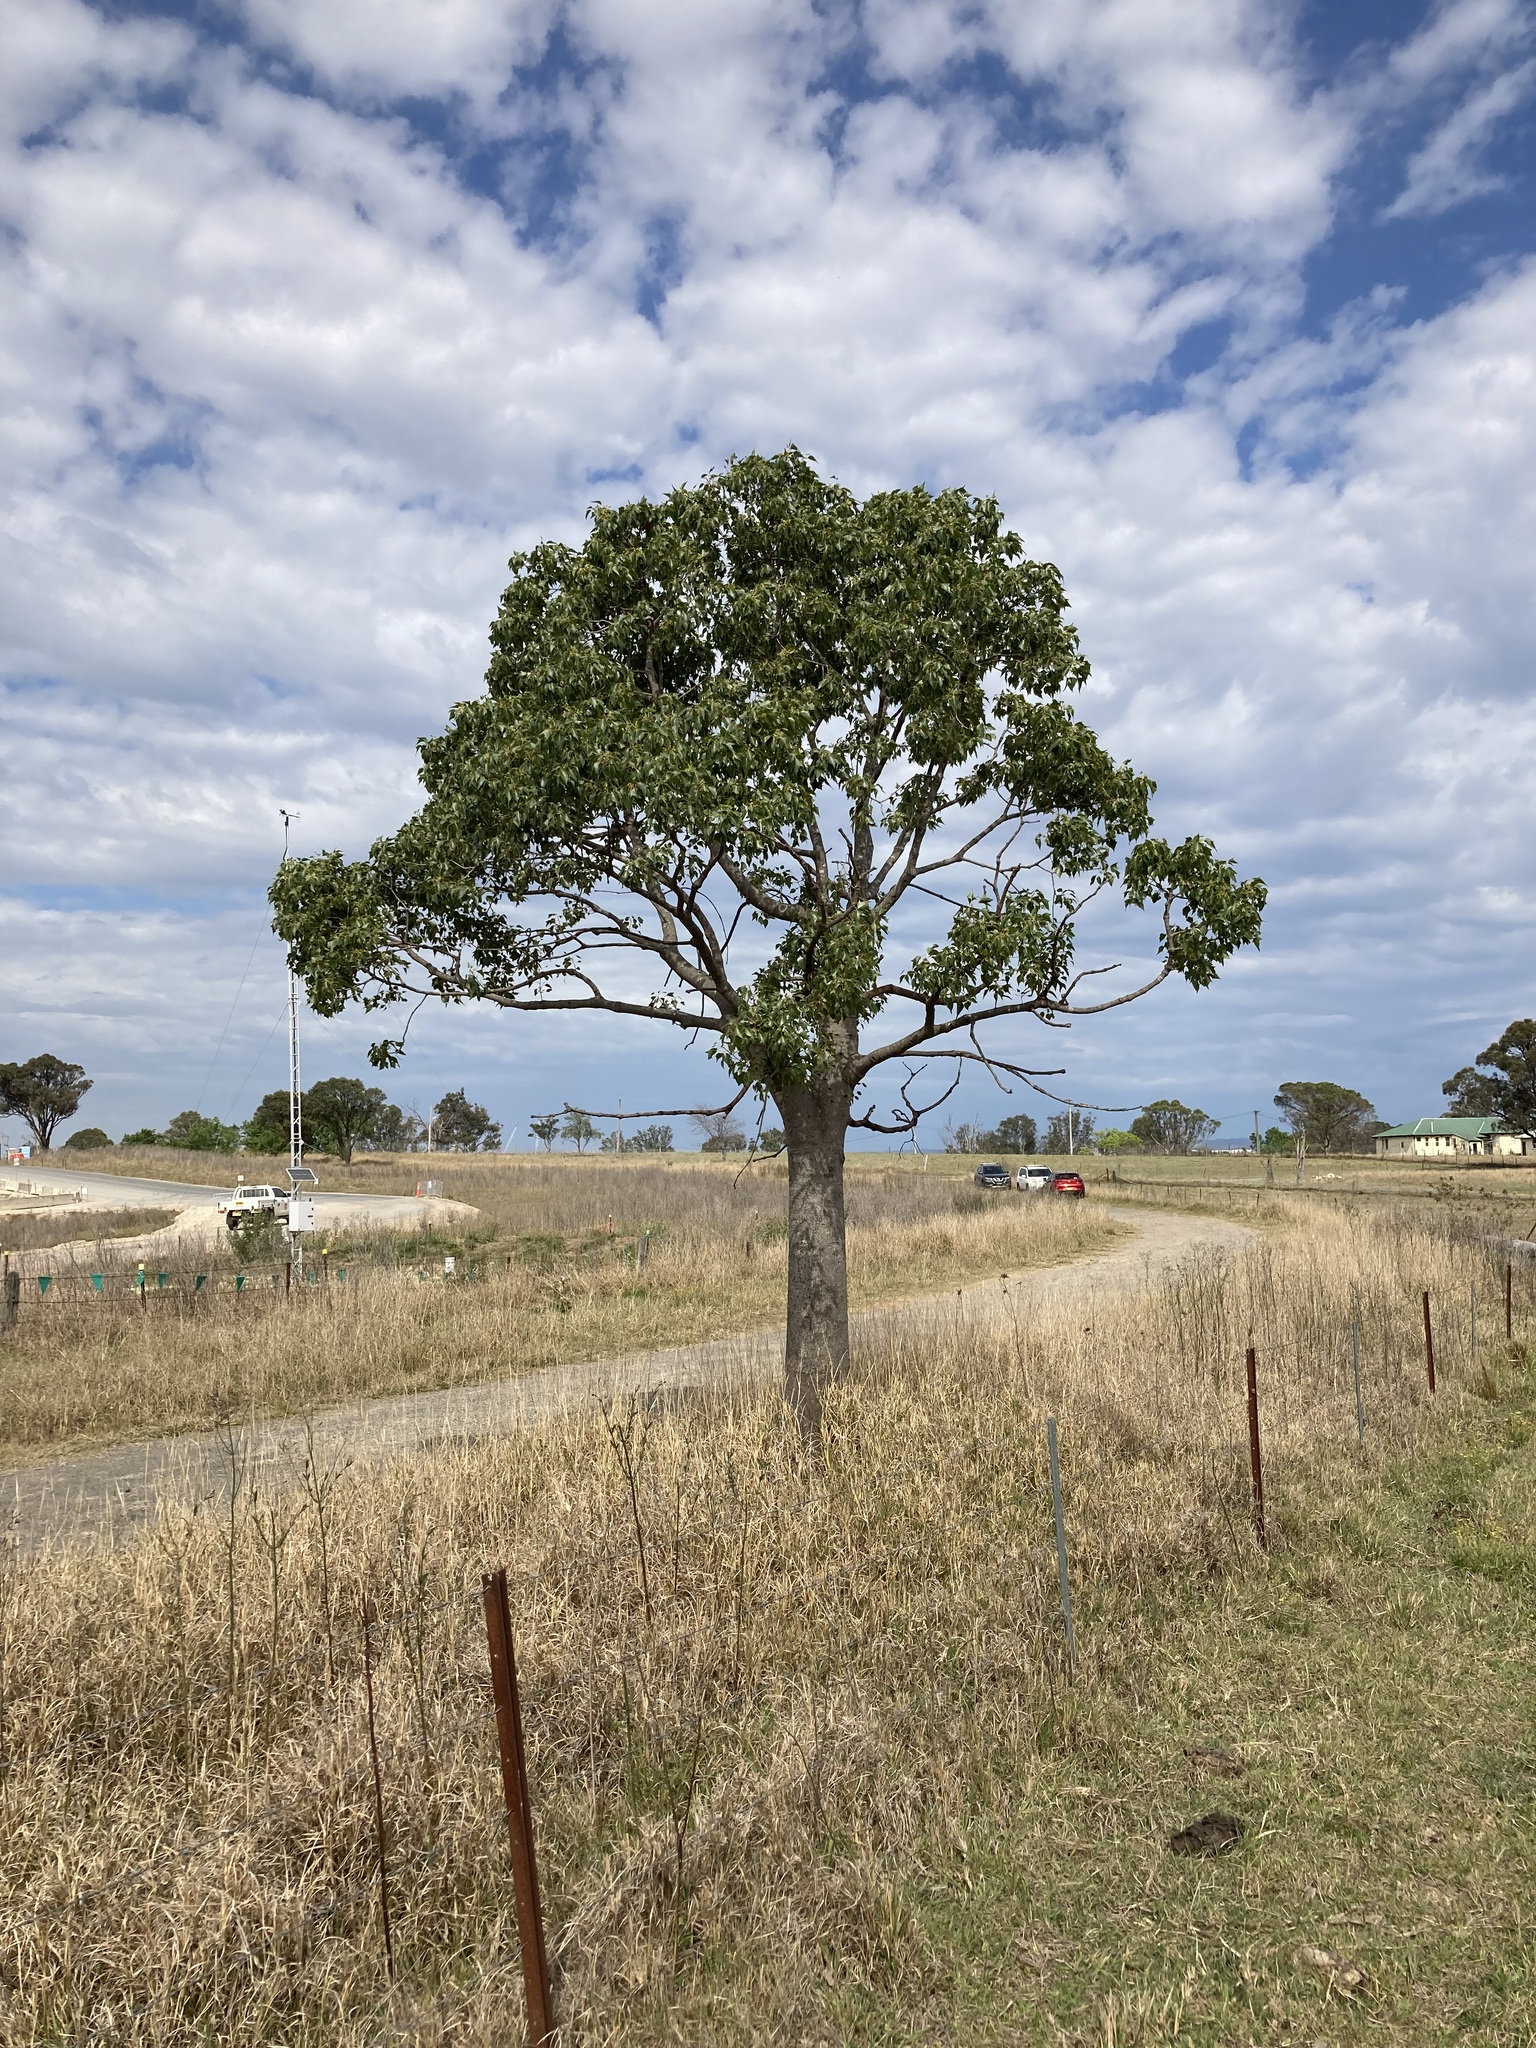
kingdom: Plantae
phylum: Tracheophyta
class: Magnoliopsida
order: Malvales
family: Malvaceae
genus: Brachychiton
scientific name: Brachychiton populneus
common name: Kurrajong
